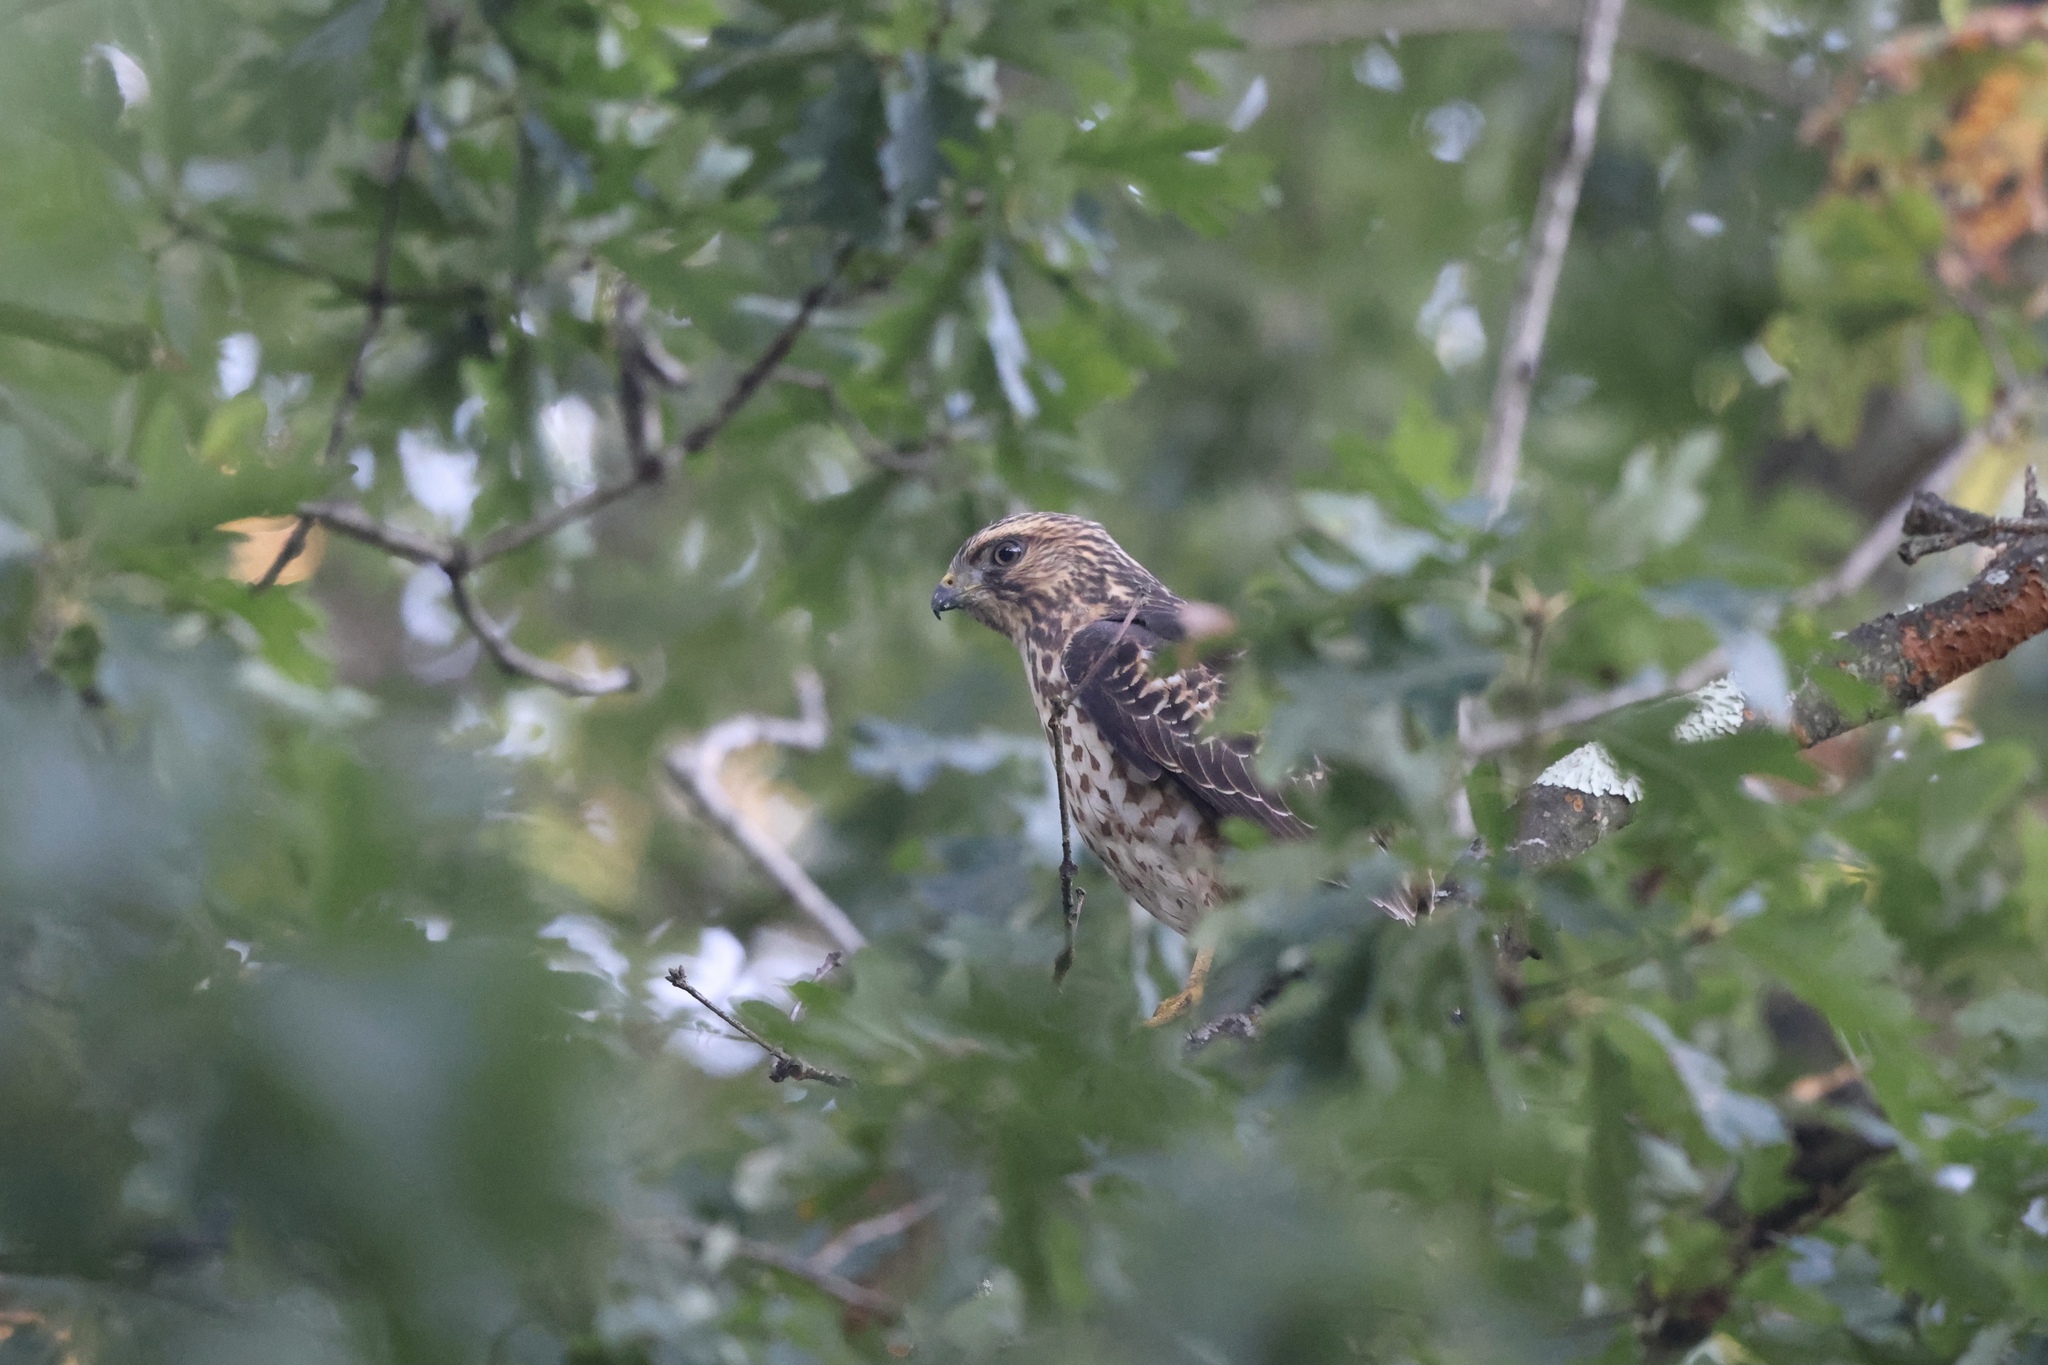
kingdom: Animalia
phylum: Chordata
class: Aves
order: Accipitriformes
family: Accipitridae
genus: Buteo
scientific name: Buteo platypterus
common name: Broad-winged hawk
